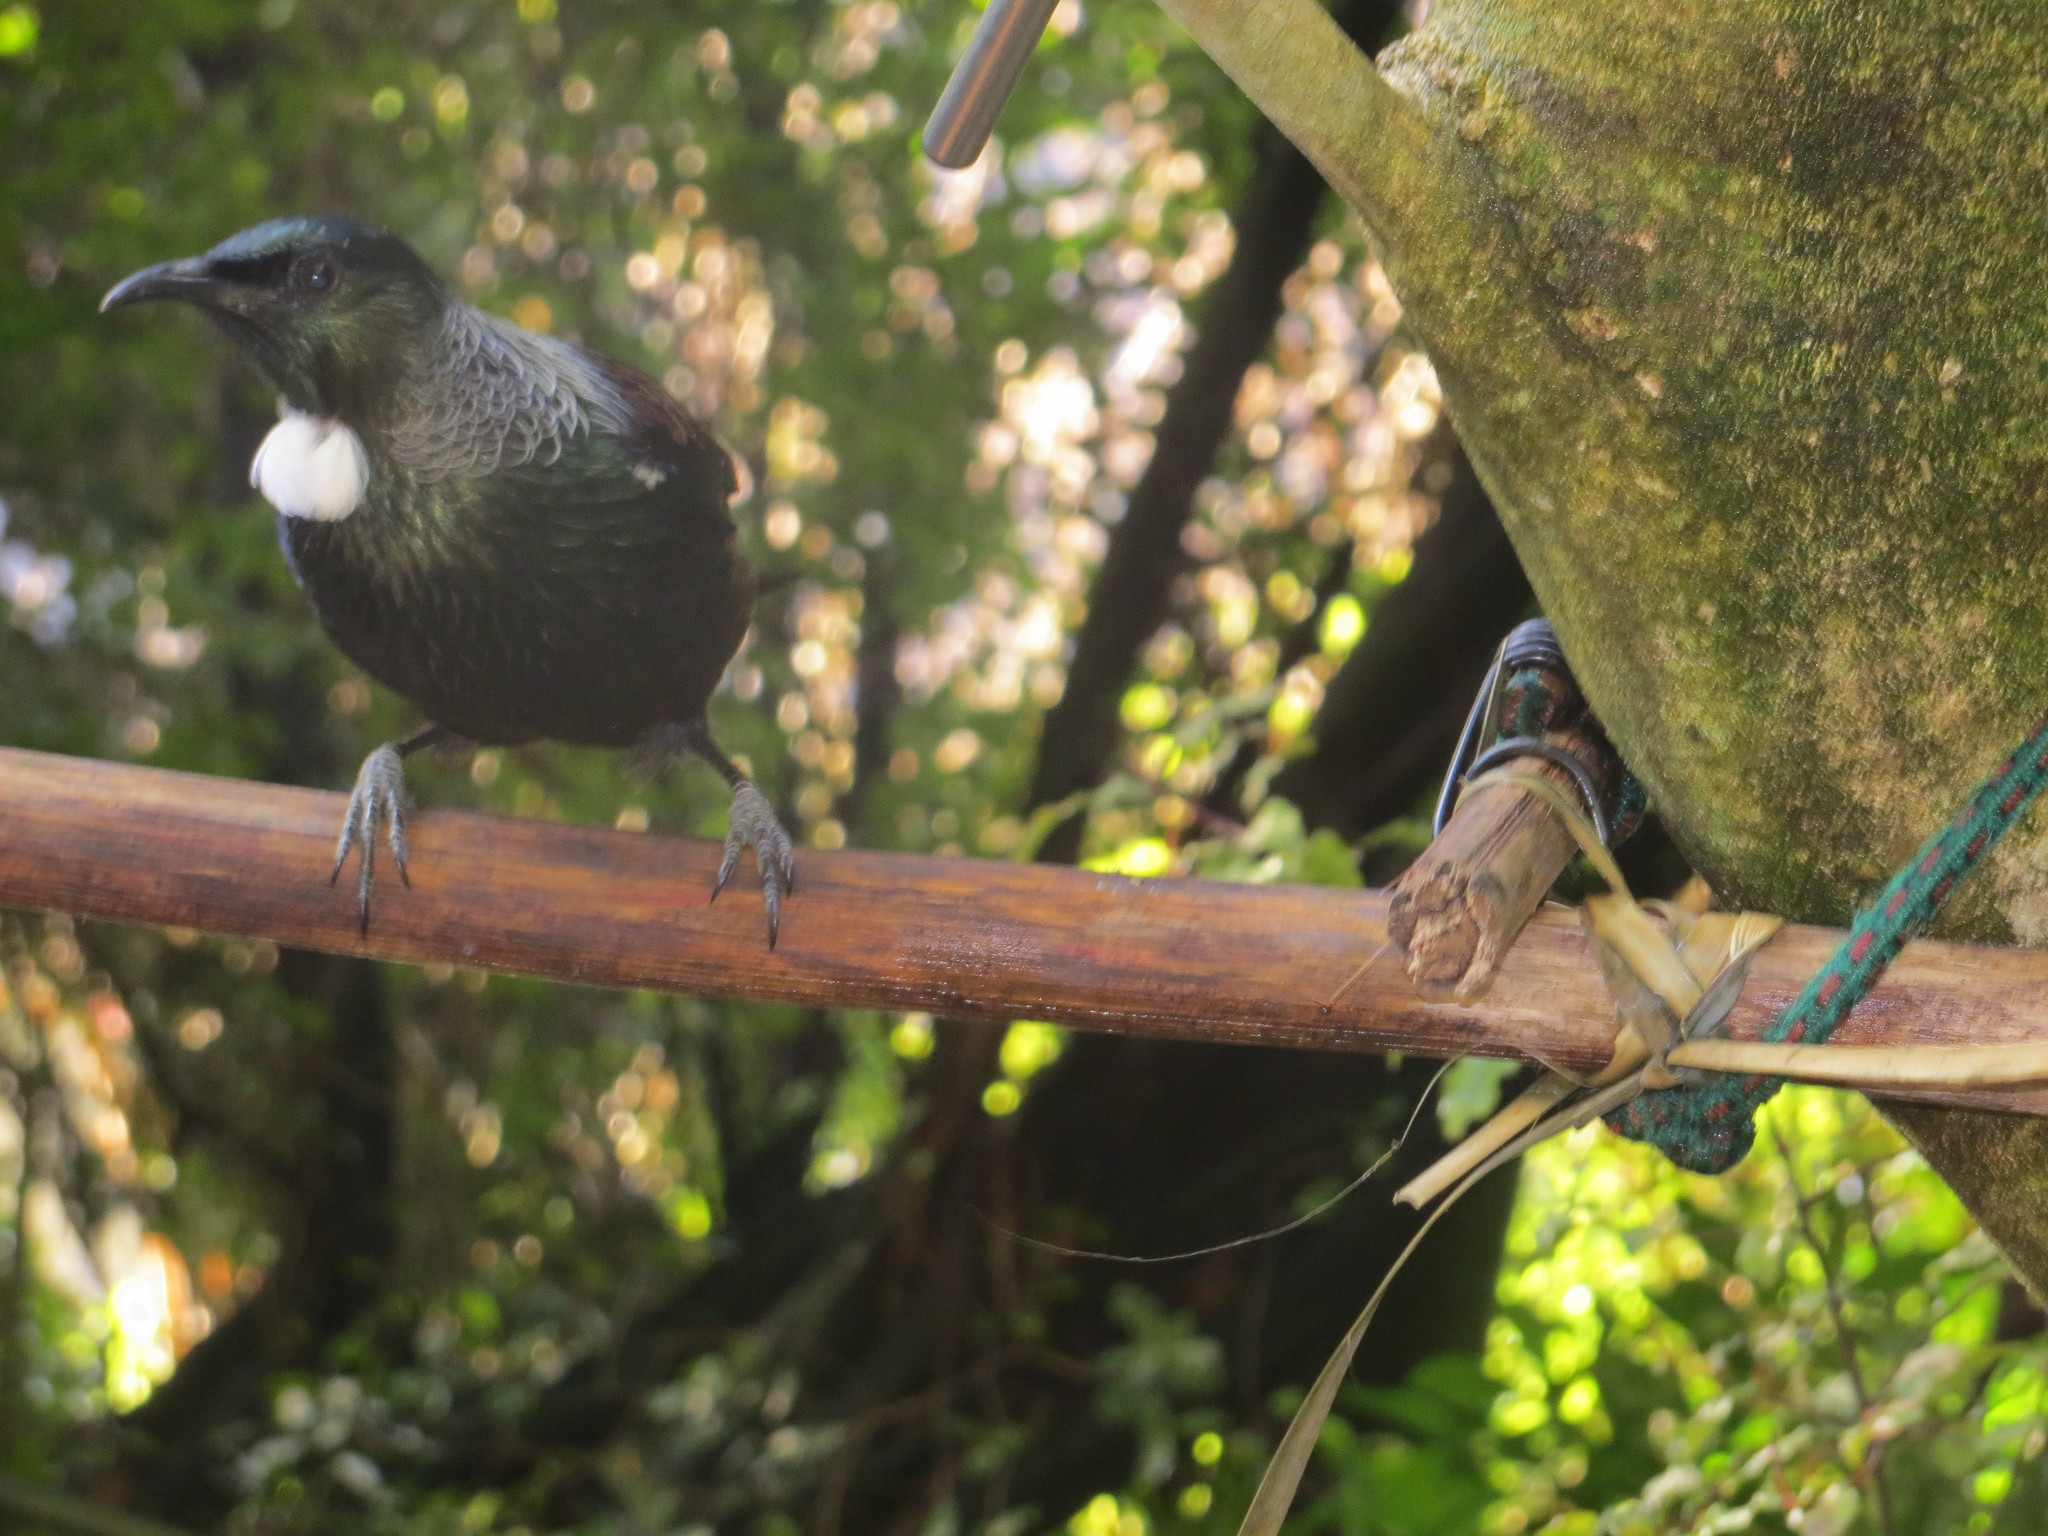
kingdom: Animalia
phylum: Chordata
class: Aves
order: Passeriformes
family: Meliphagidae
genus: Prosthemadera
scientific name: Prosthemadera novaeseelandiae
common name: Tui
